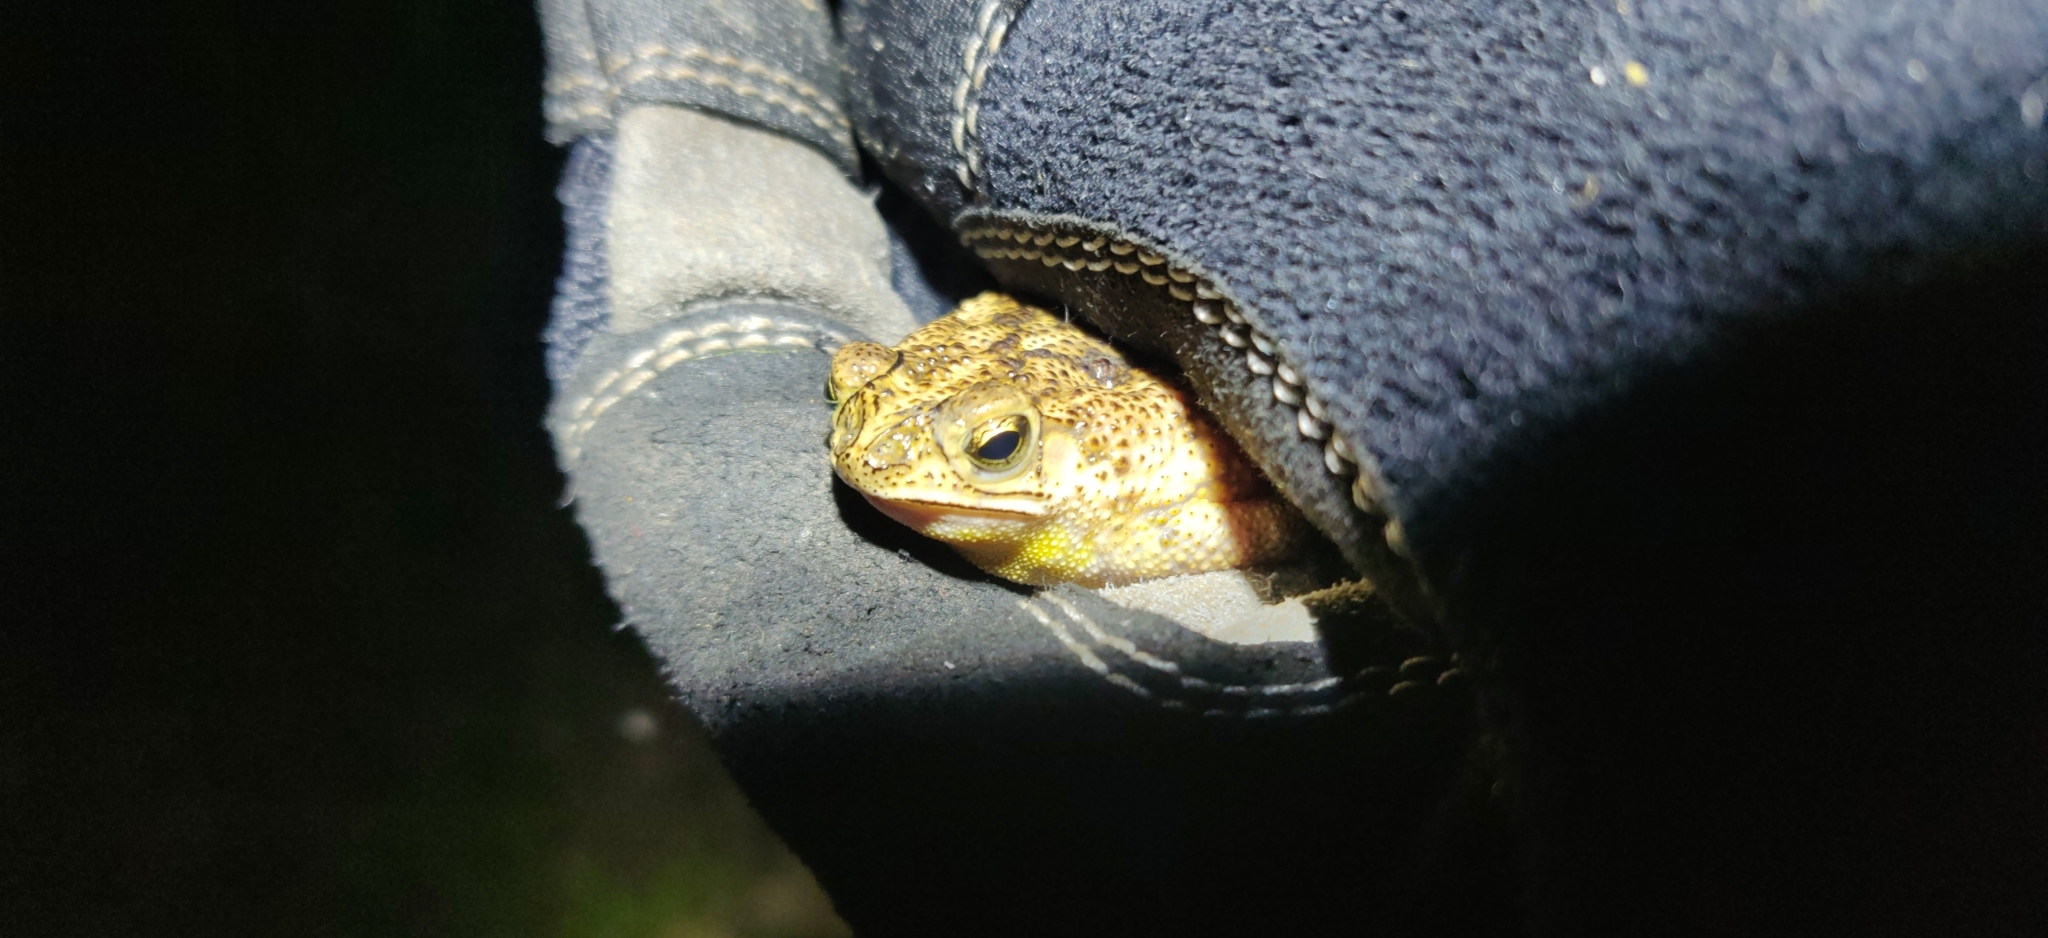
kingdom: Animalia
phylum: Chordata
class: Amphibia
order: Anura
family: Bufonidae
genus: Rhinella
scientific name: Rhinella beebei
